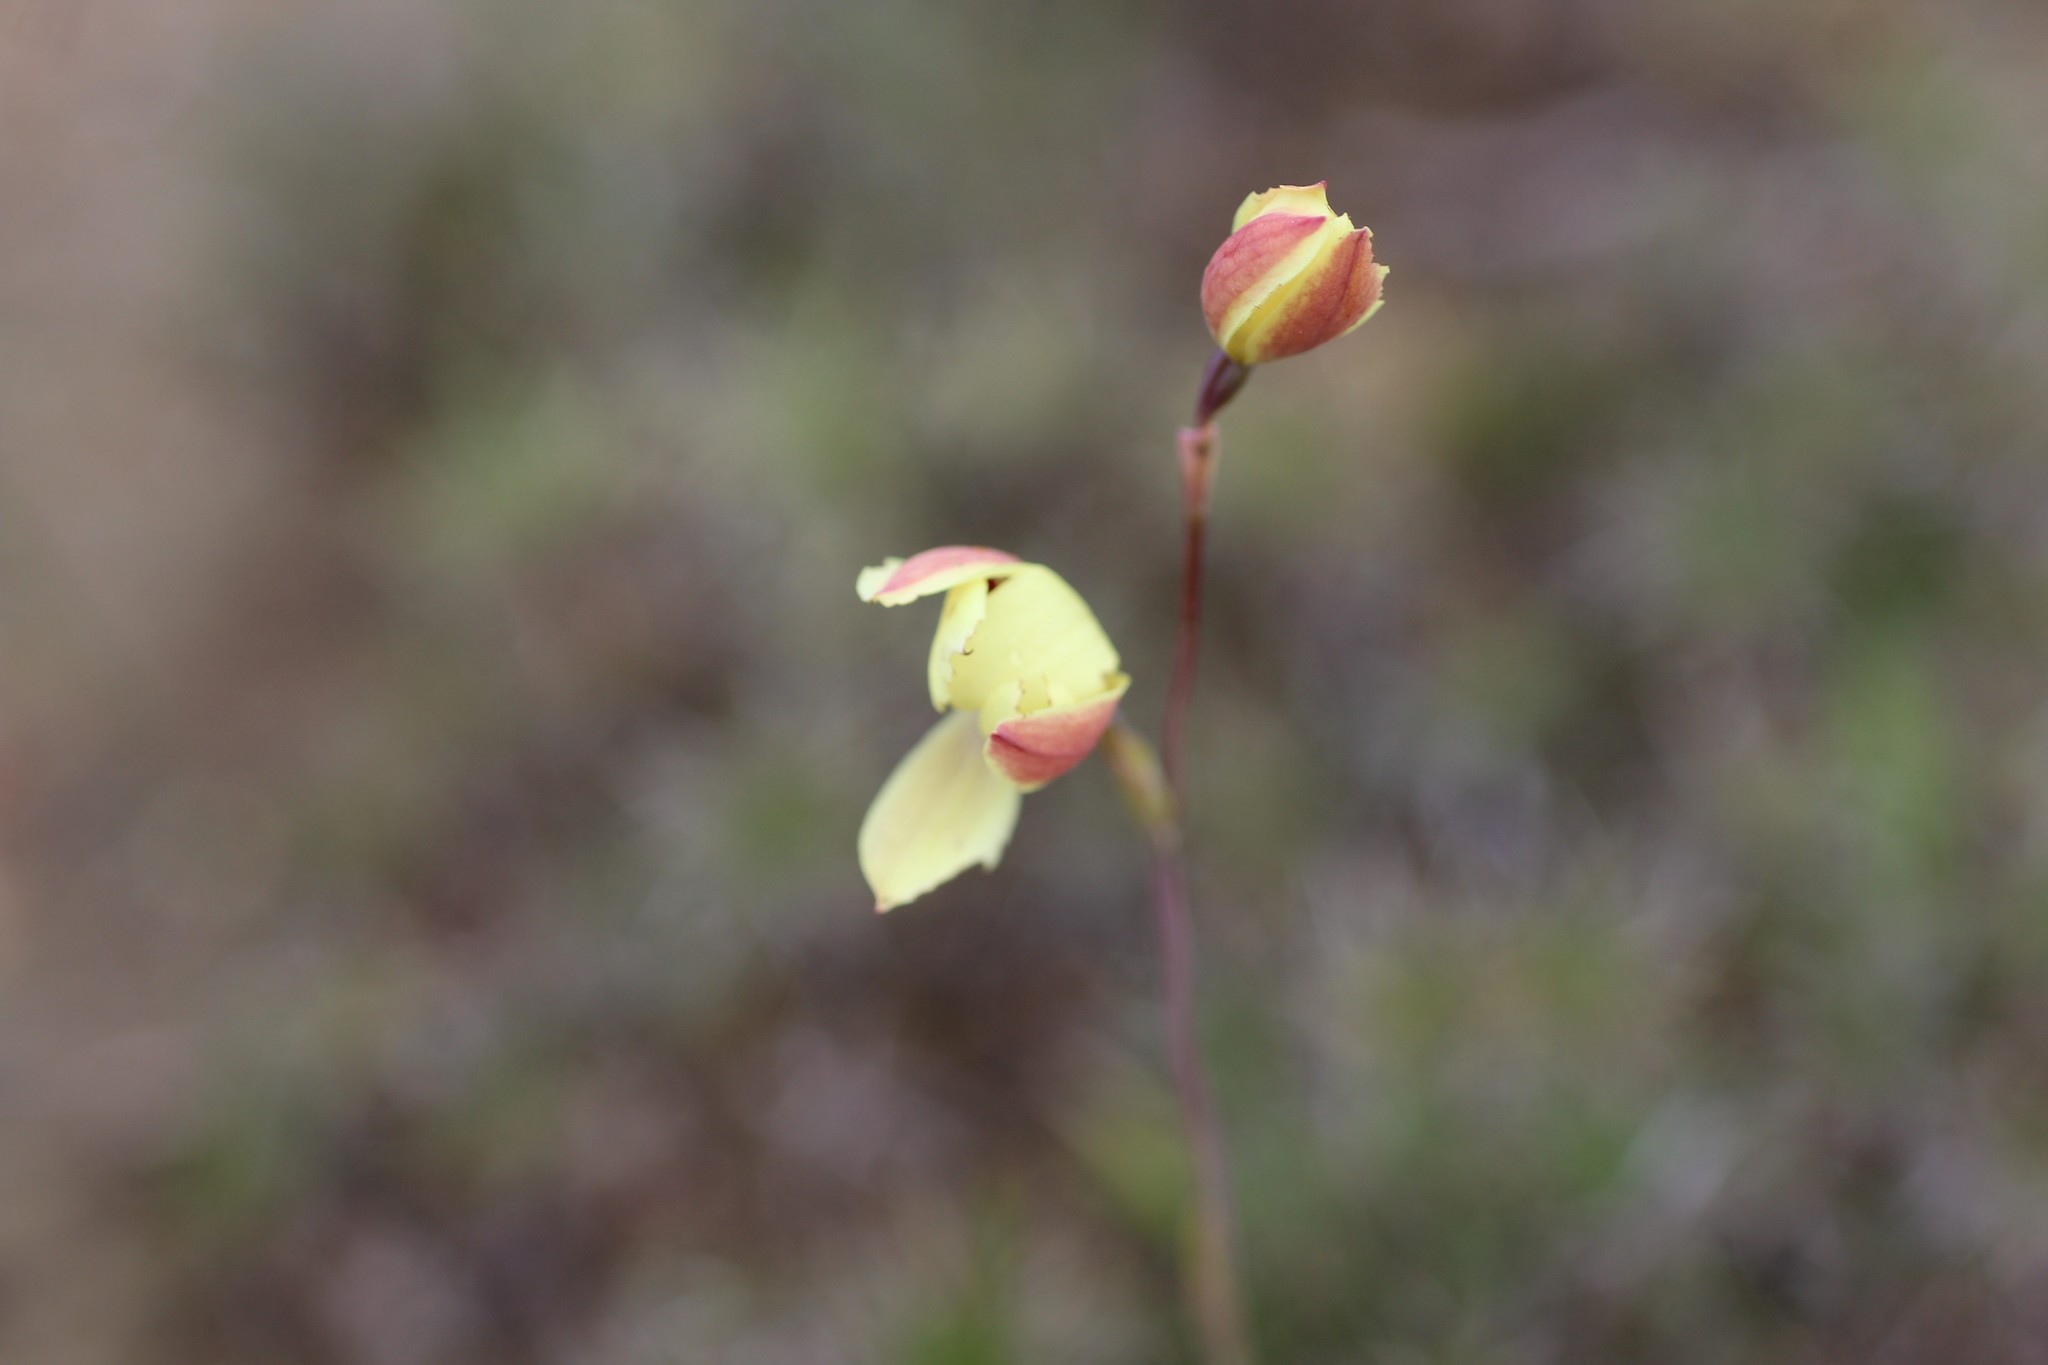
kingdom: Plantae
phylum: Tracheophyta
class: Liliopsida
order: Asparagales
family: Orchidaceae
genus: Thelymitra
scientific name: Thelymitra antennifera
